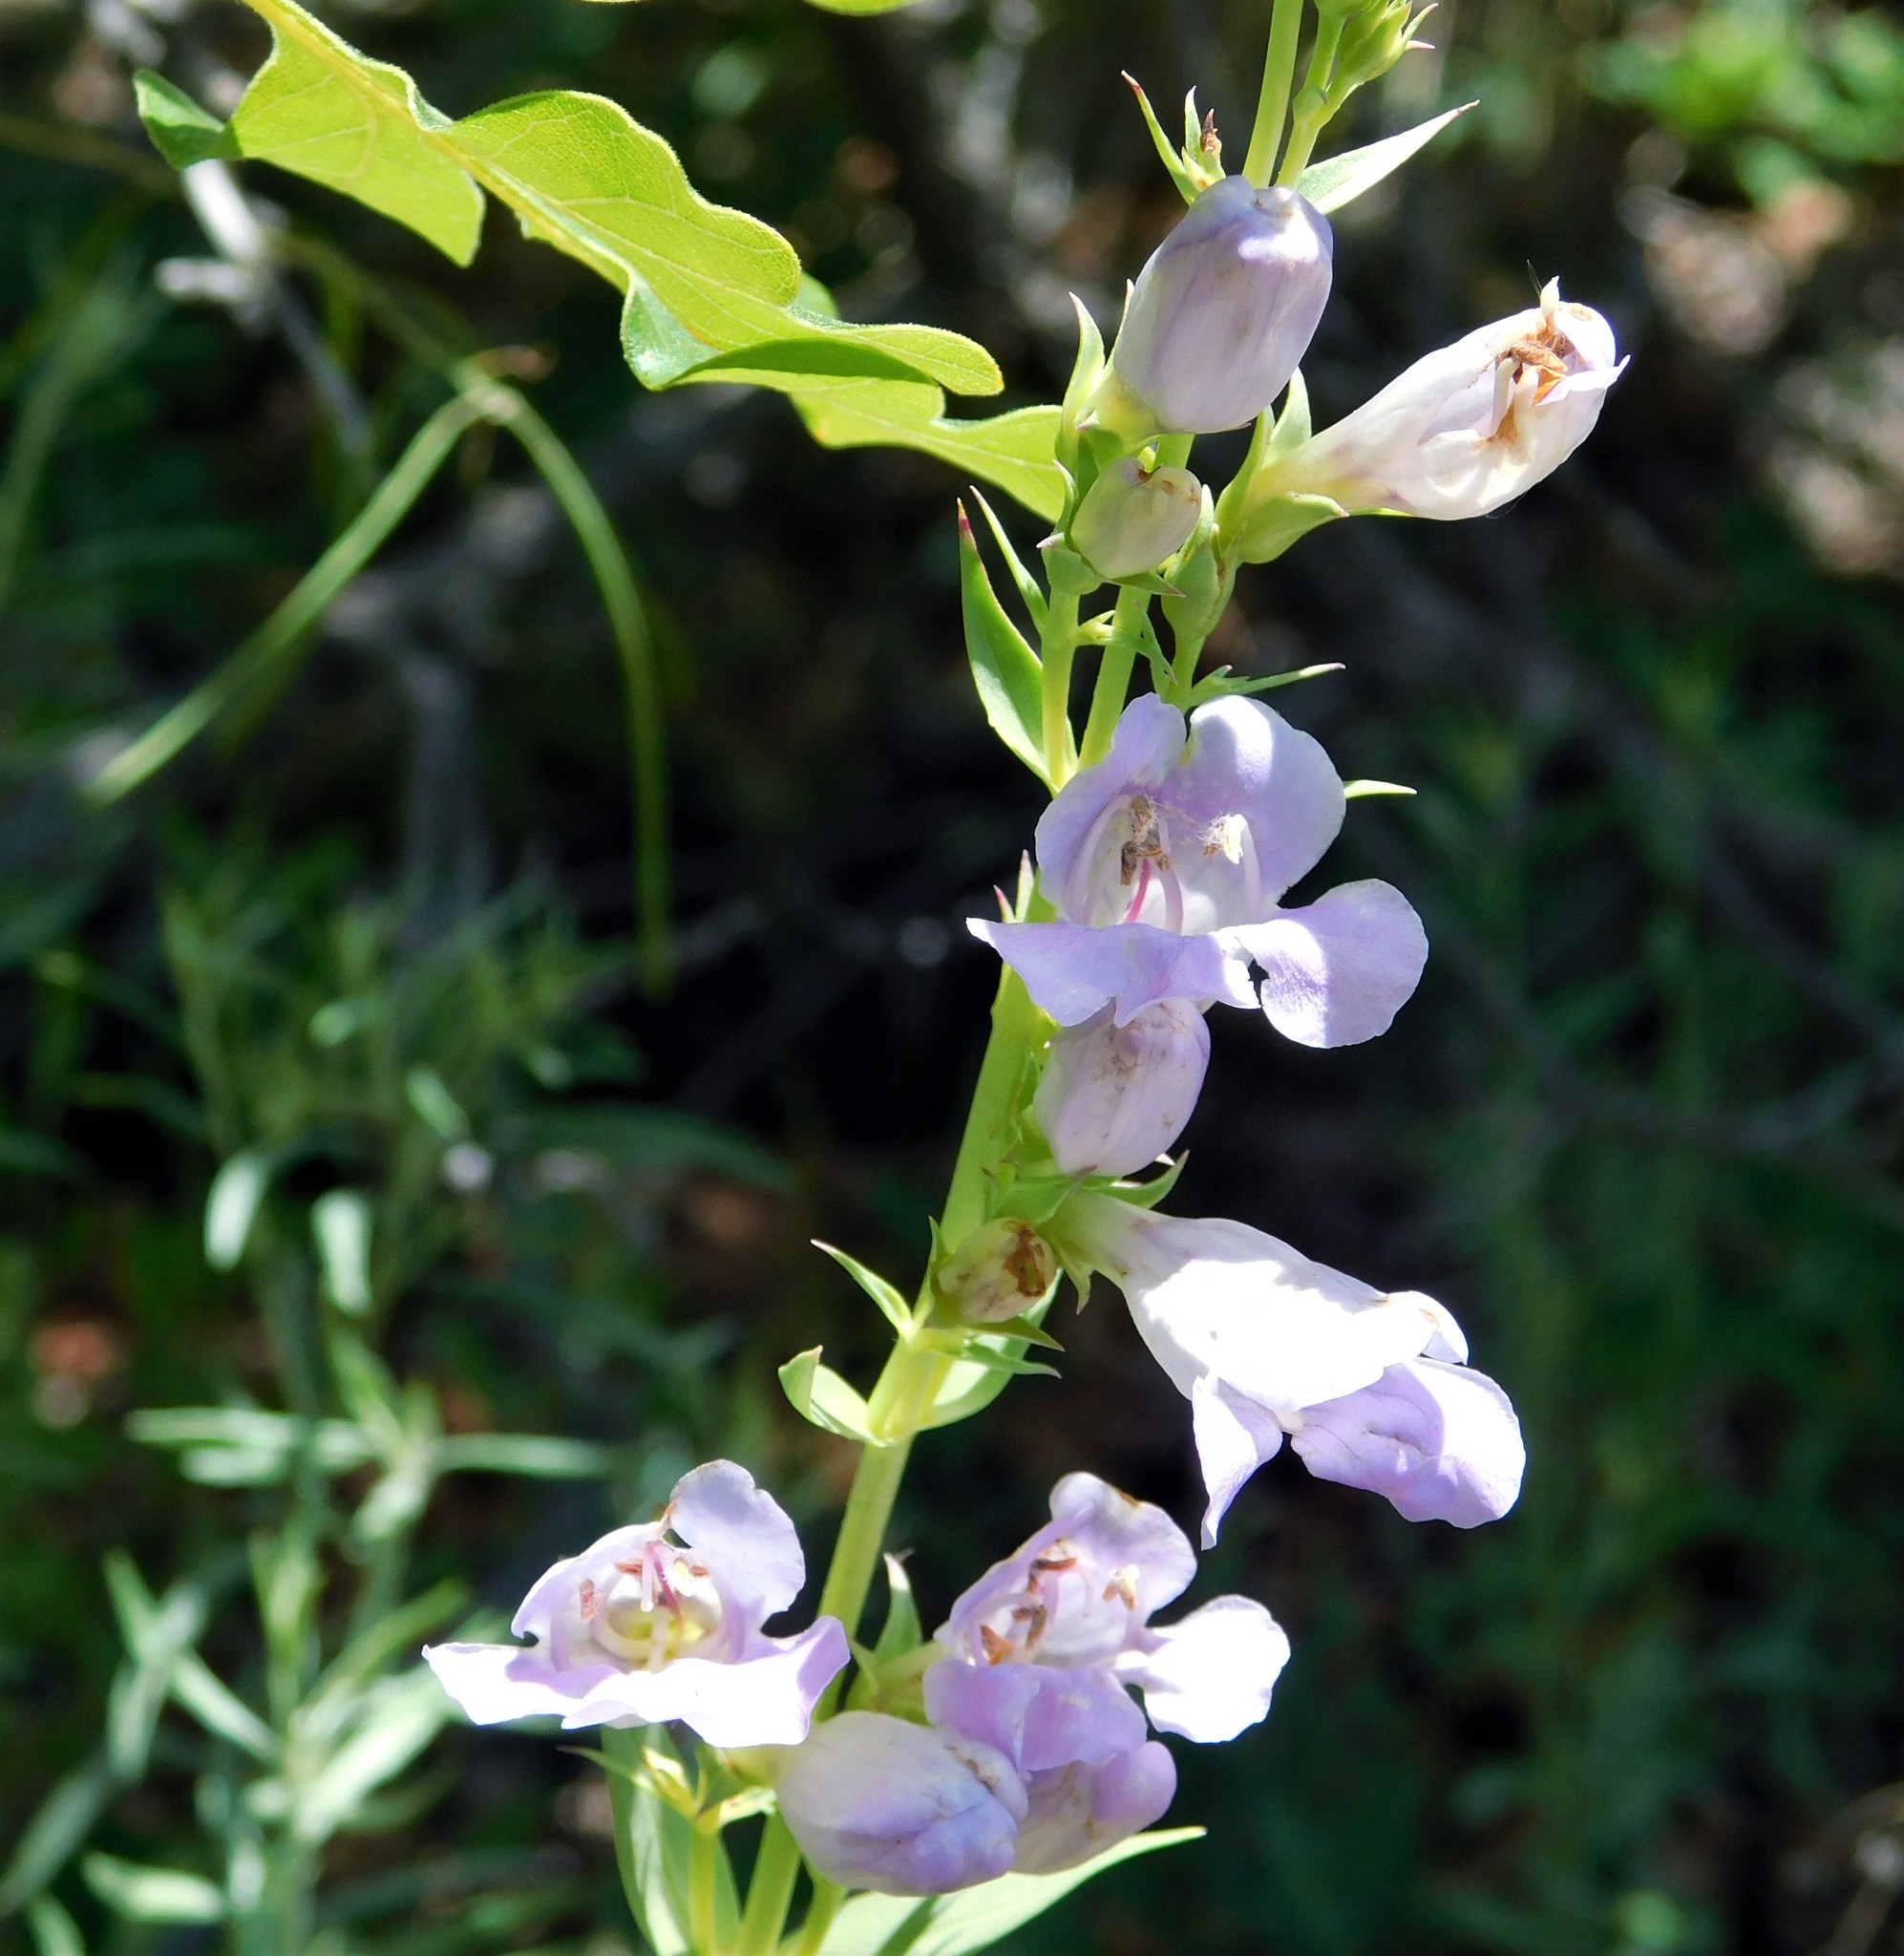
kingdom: Plantae
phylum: Tracheophyta
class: Magnoliopsida
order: Lamiales
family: Plantaginaceae
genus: Penstemon
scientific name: Penstemon strictiformis
